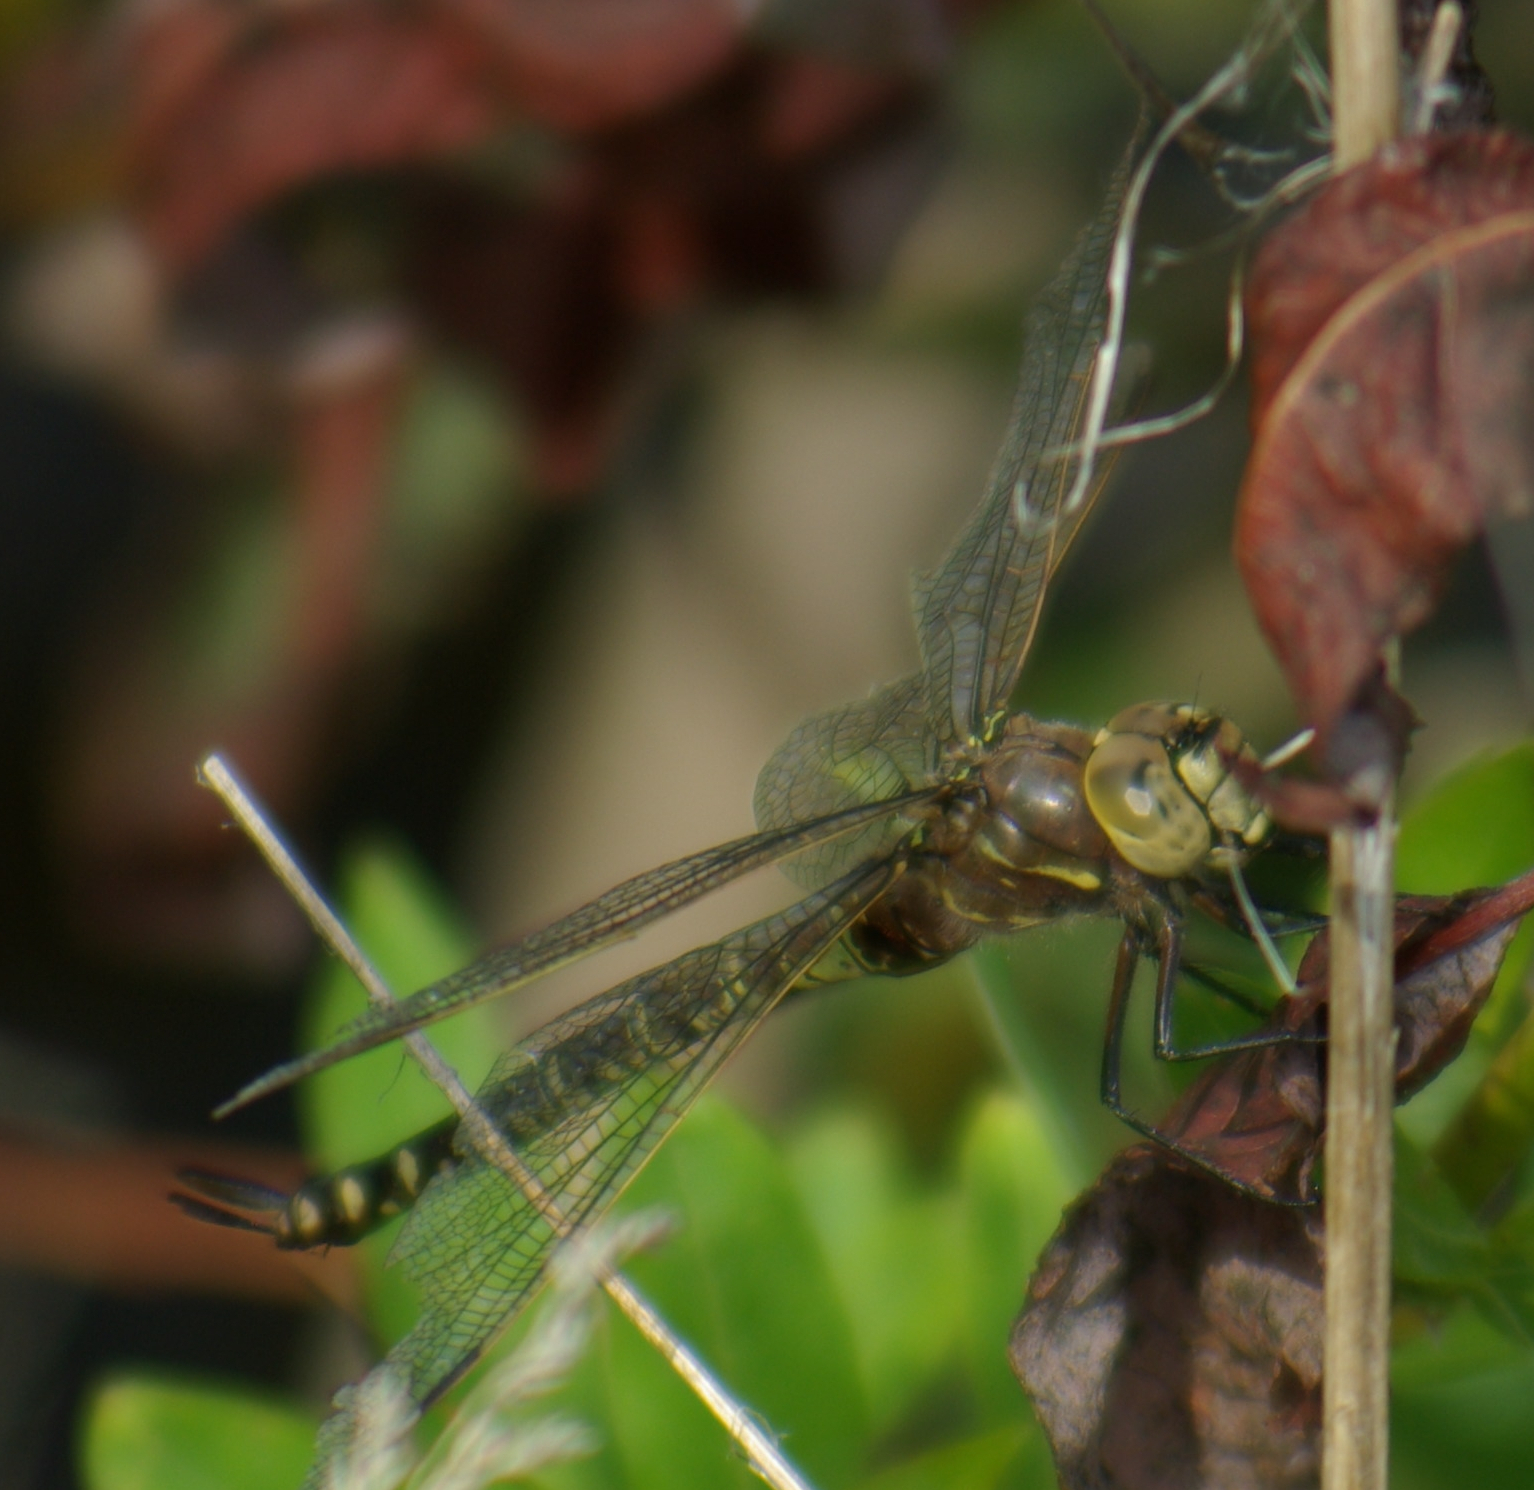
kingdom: Animalia
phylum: Arthropoda
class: Insecta
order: Odonata
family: Aeshnidae
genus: Aeshna
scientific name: Aeshna interrupta
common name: Variable darner
